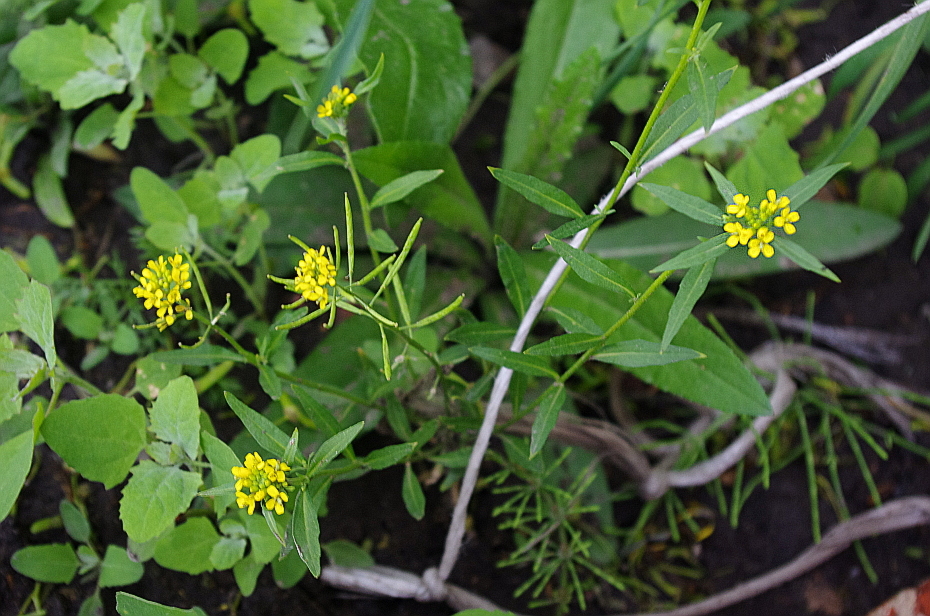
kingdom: Plantae
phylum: Tracheophyta
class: Magnoliopsida
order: Brassicales
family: Brassicaceae
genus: Erysimum
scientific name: Erysimum cheiranthoides
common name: Treacle mustard
